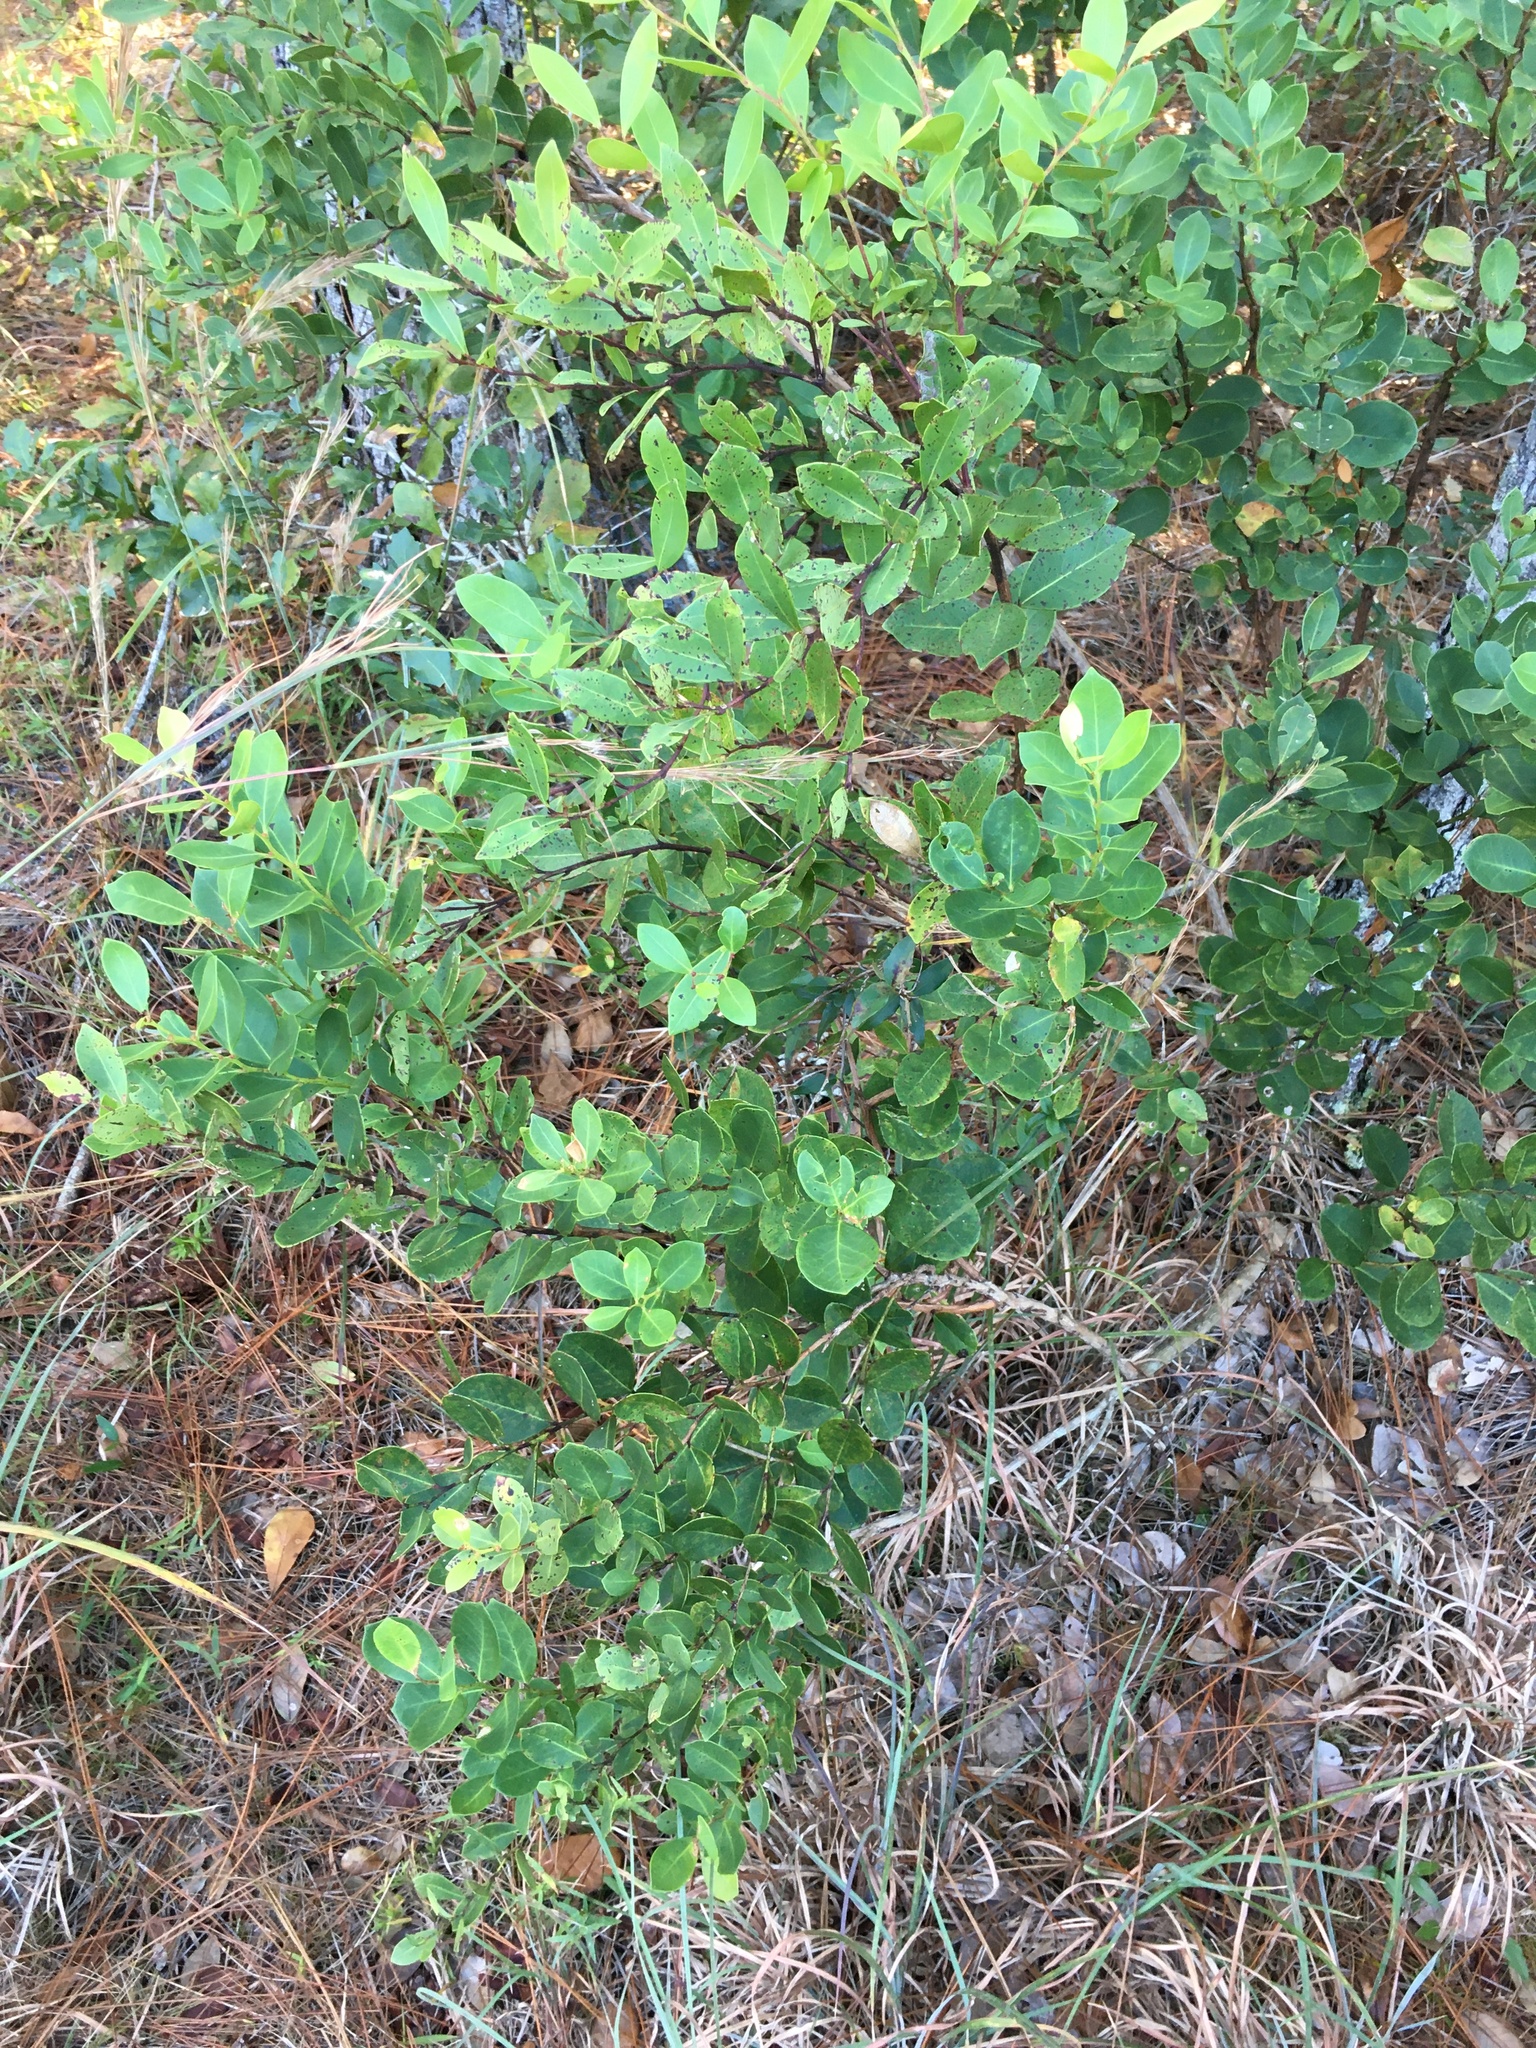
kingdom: Plantae
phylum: Tracheophyta
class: Magnoliopsida
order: Ericales
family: Ericaceae
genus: Lyonia
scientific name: Lyonia lucida
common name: Fetterbush
